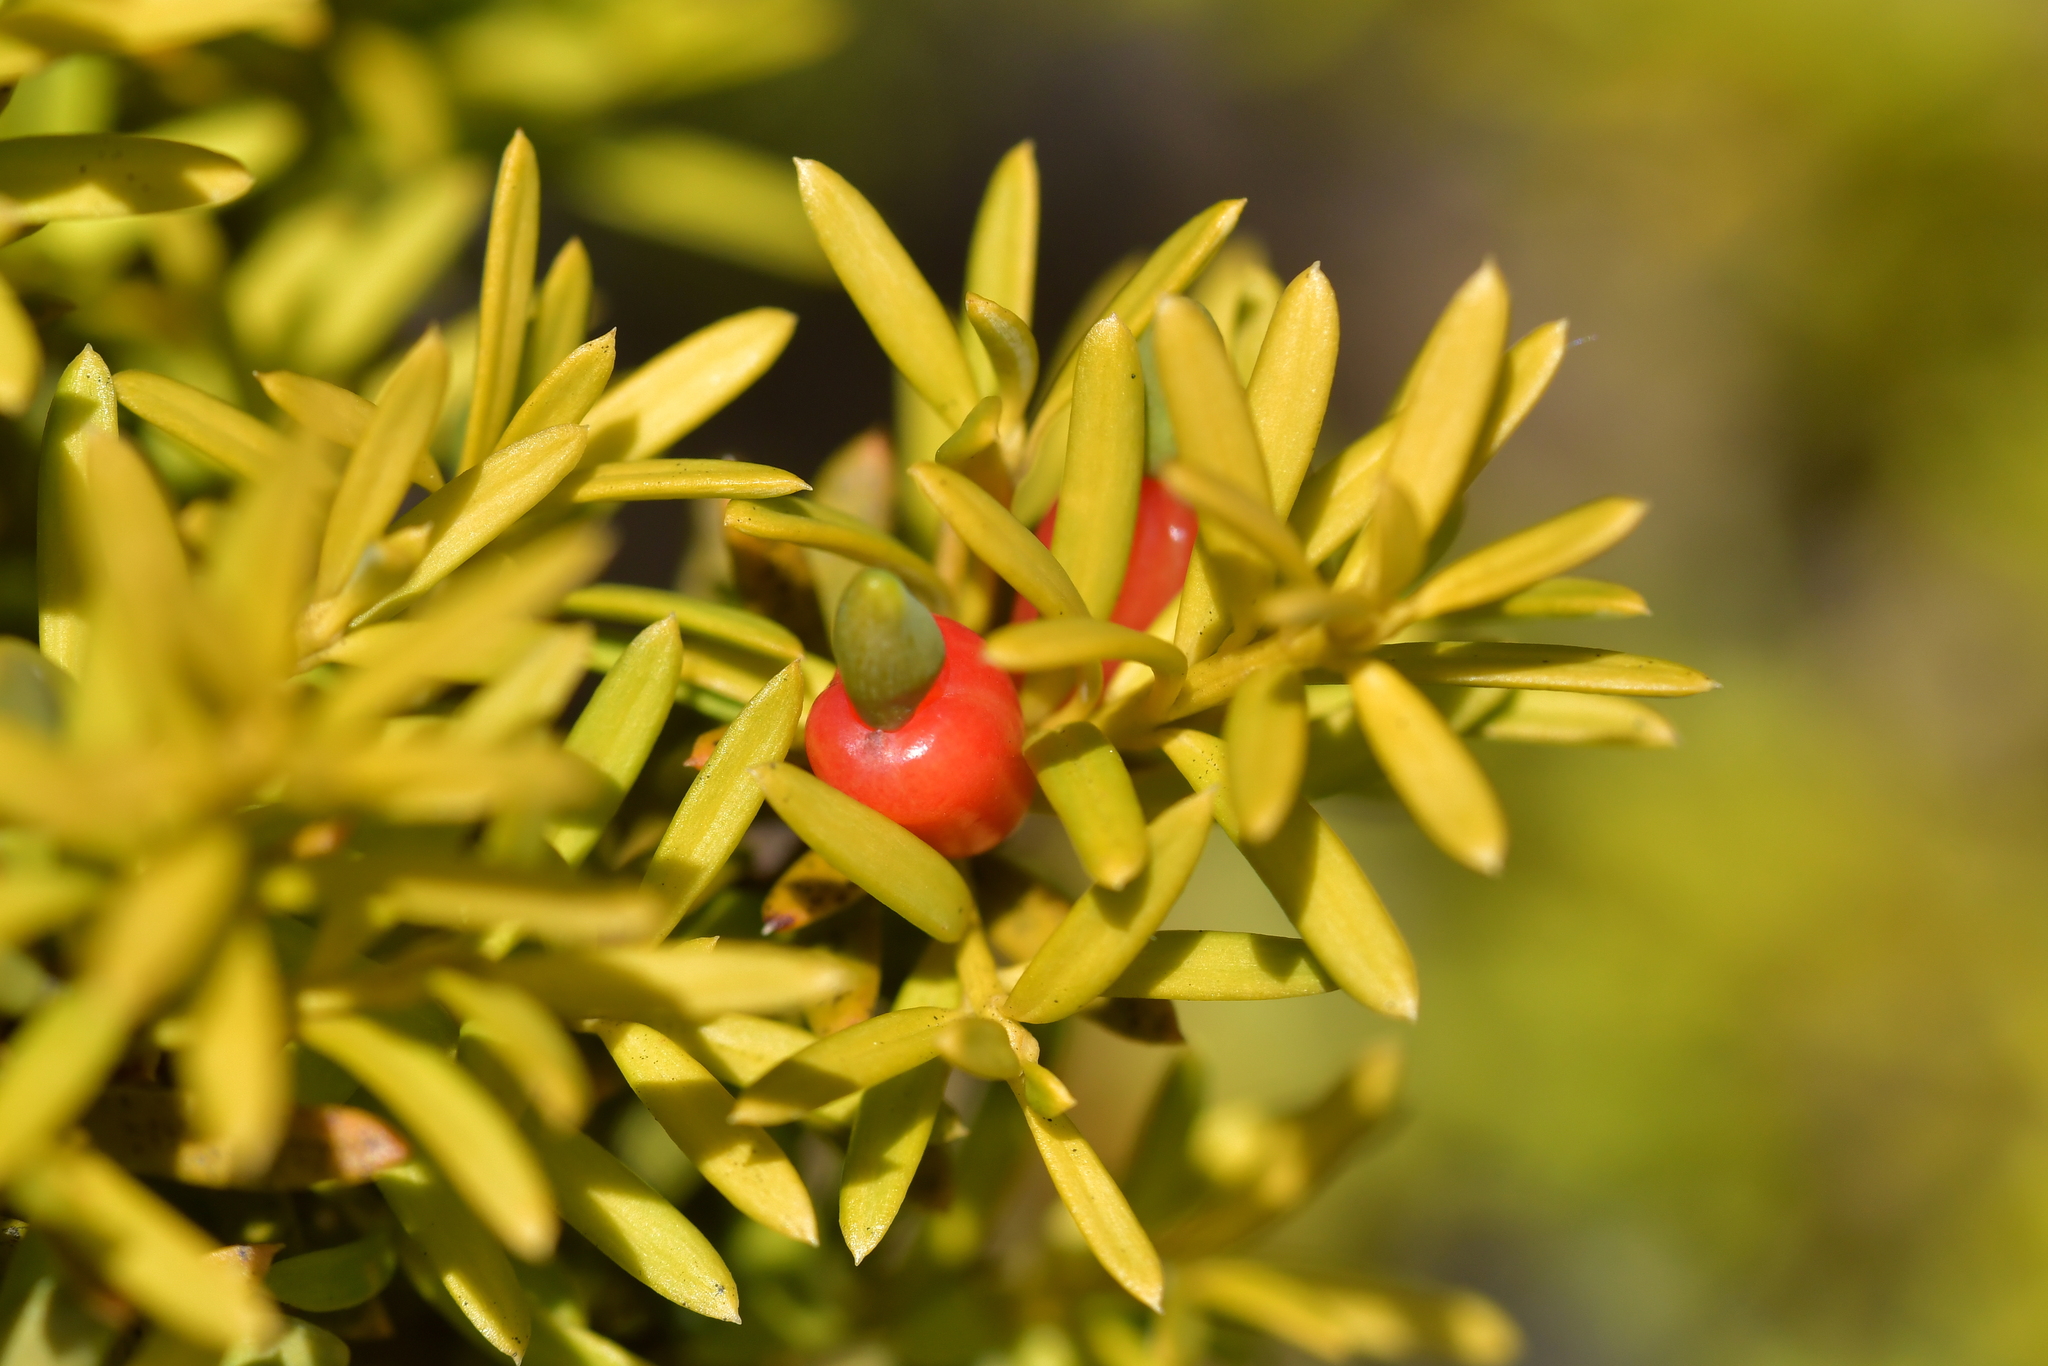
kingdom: Plantae
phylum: Tracheophyta
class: Pinopsida
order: Pinales
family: Podocarpaceae
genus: Podocarpus
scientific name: Podocarpus nivalis
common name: Alpine totara
